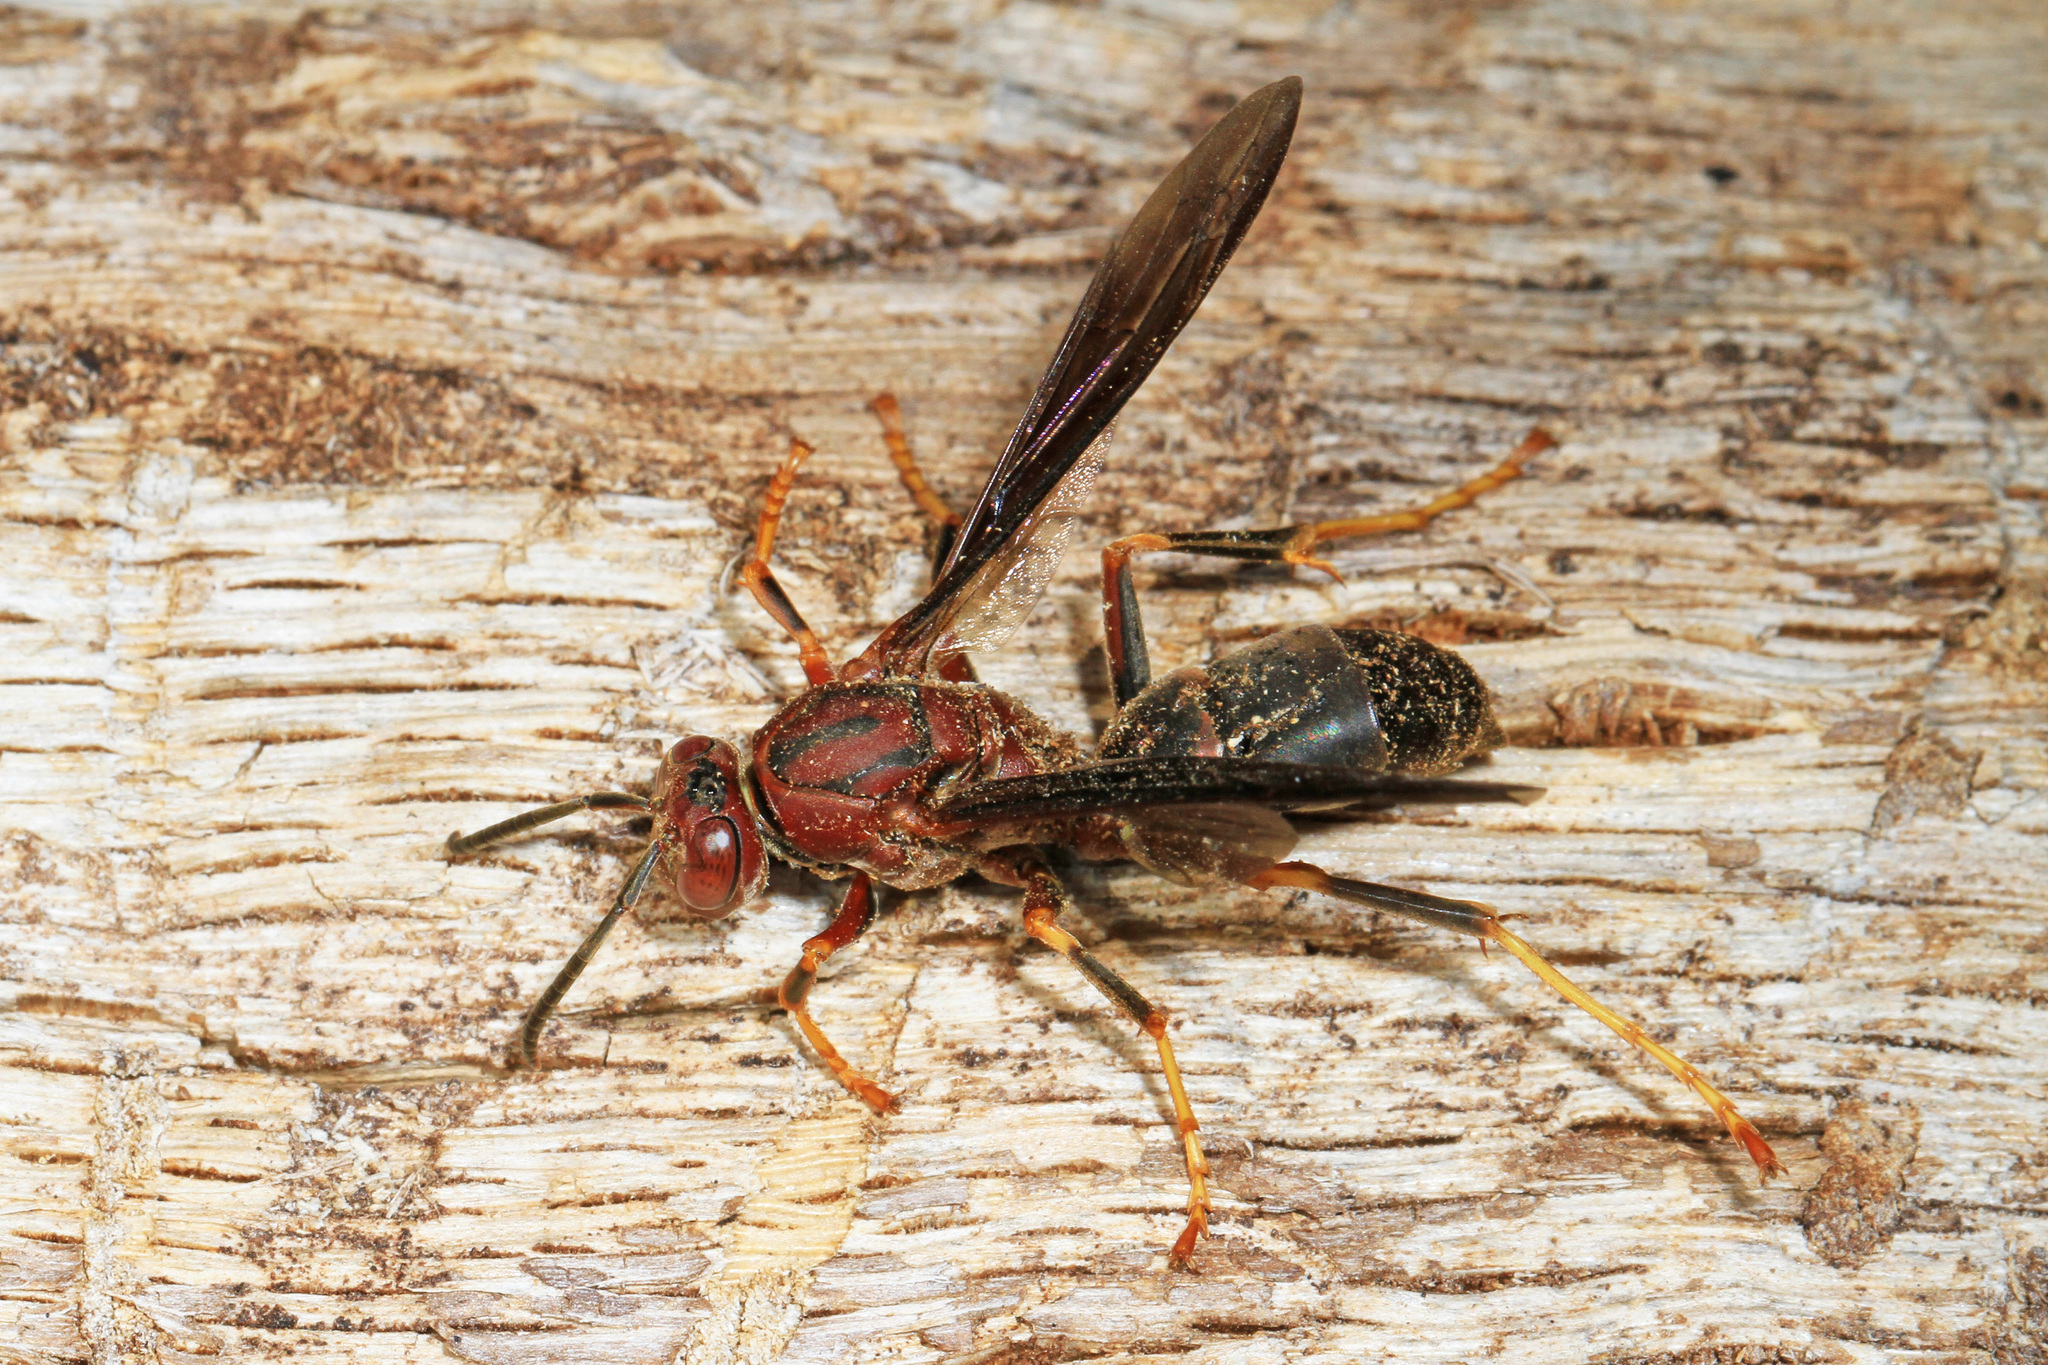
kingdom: Animalia
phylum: Arthropoda
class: Insecta
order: Hymenoptera
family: Eumenidae
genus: Polistes
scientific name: Polistes metricus
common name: Metric paper wasp
